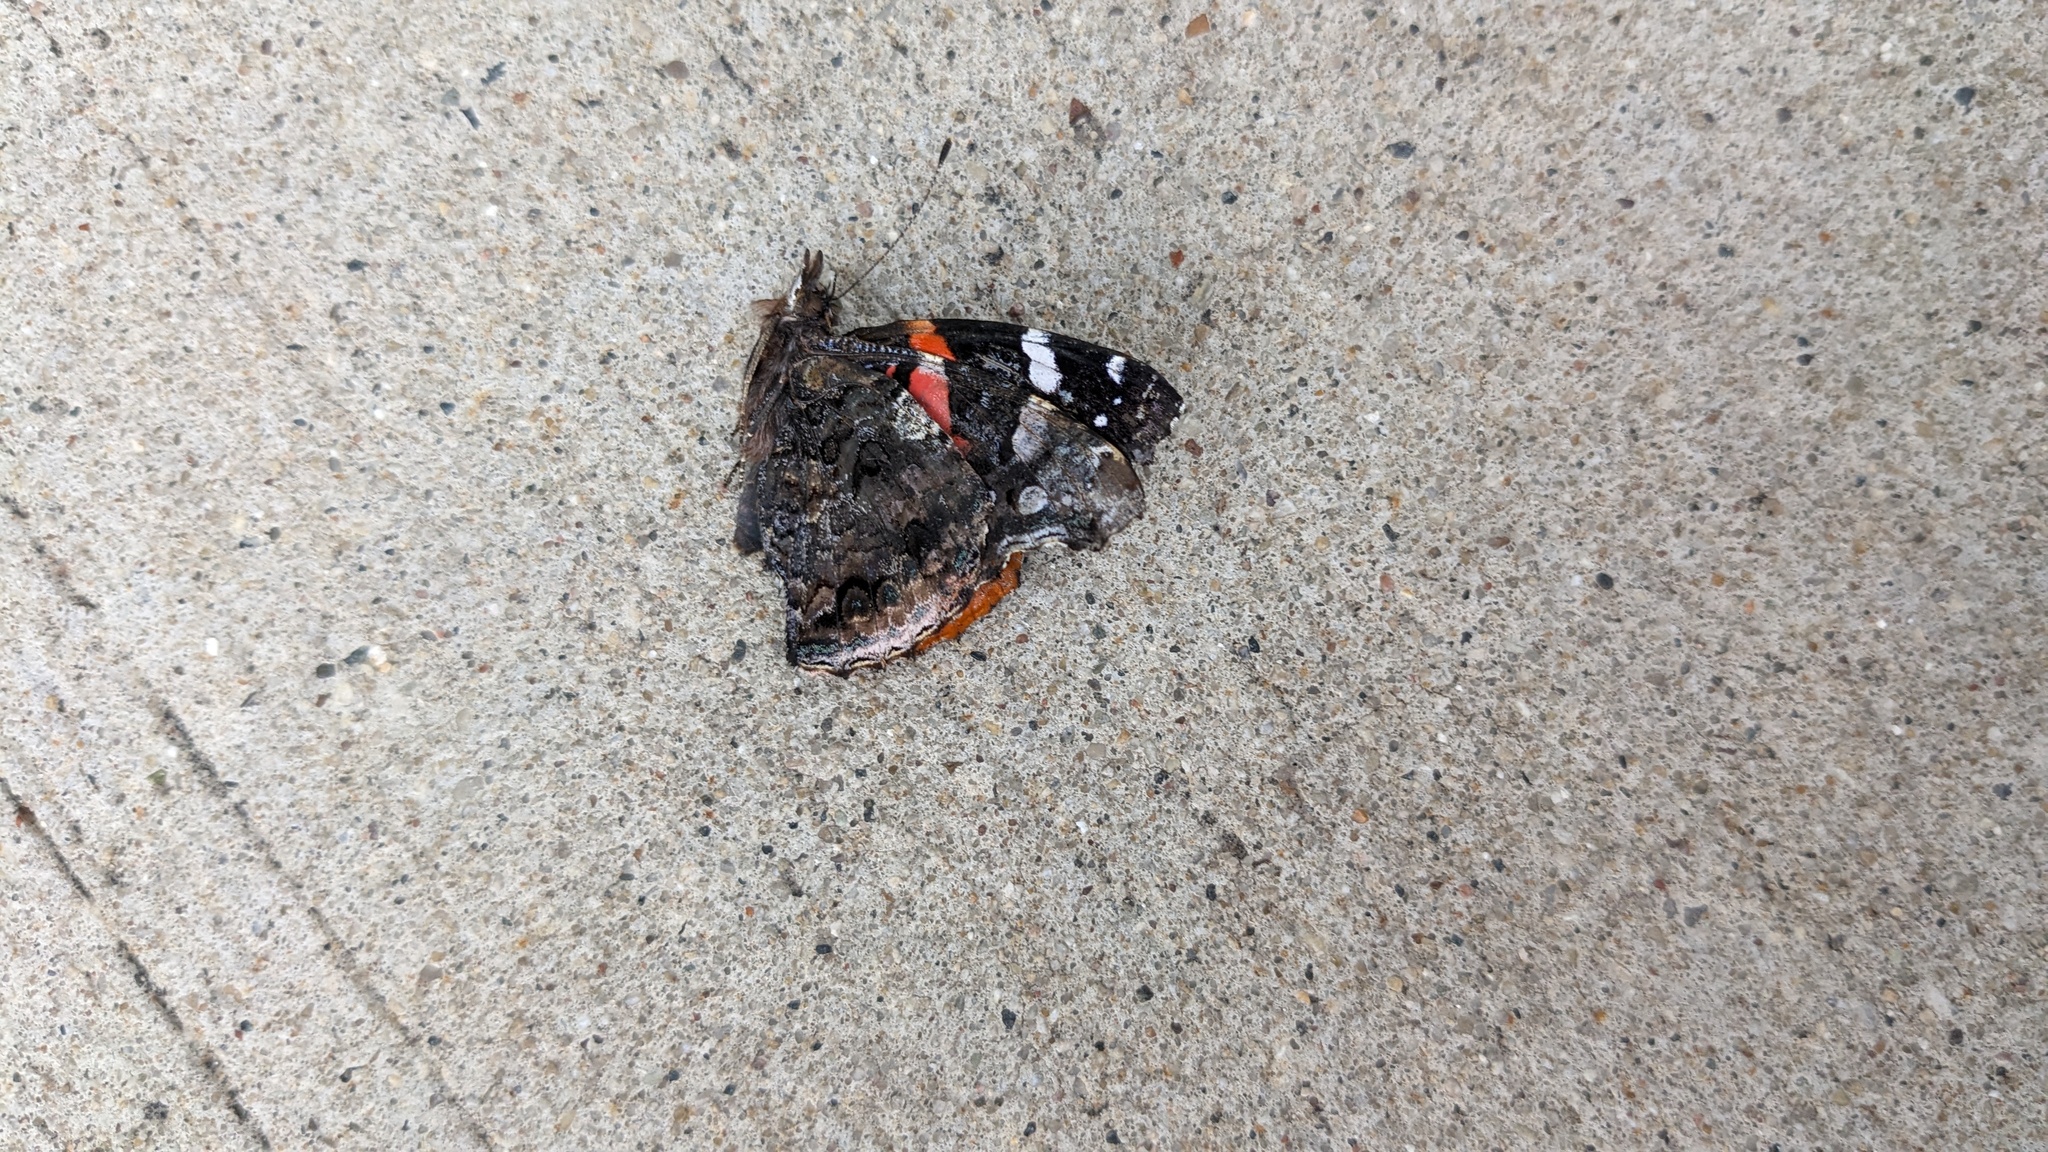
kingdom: Animalia
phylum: Arthropoda
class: Insecta
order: Lepidoptera
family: Nymphalidae
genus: Vanessa
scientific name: Vanessa atalanta
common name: Red admiral
